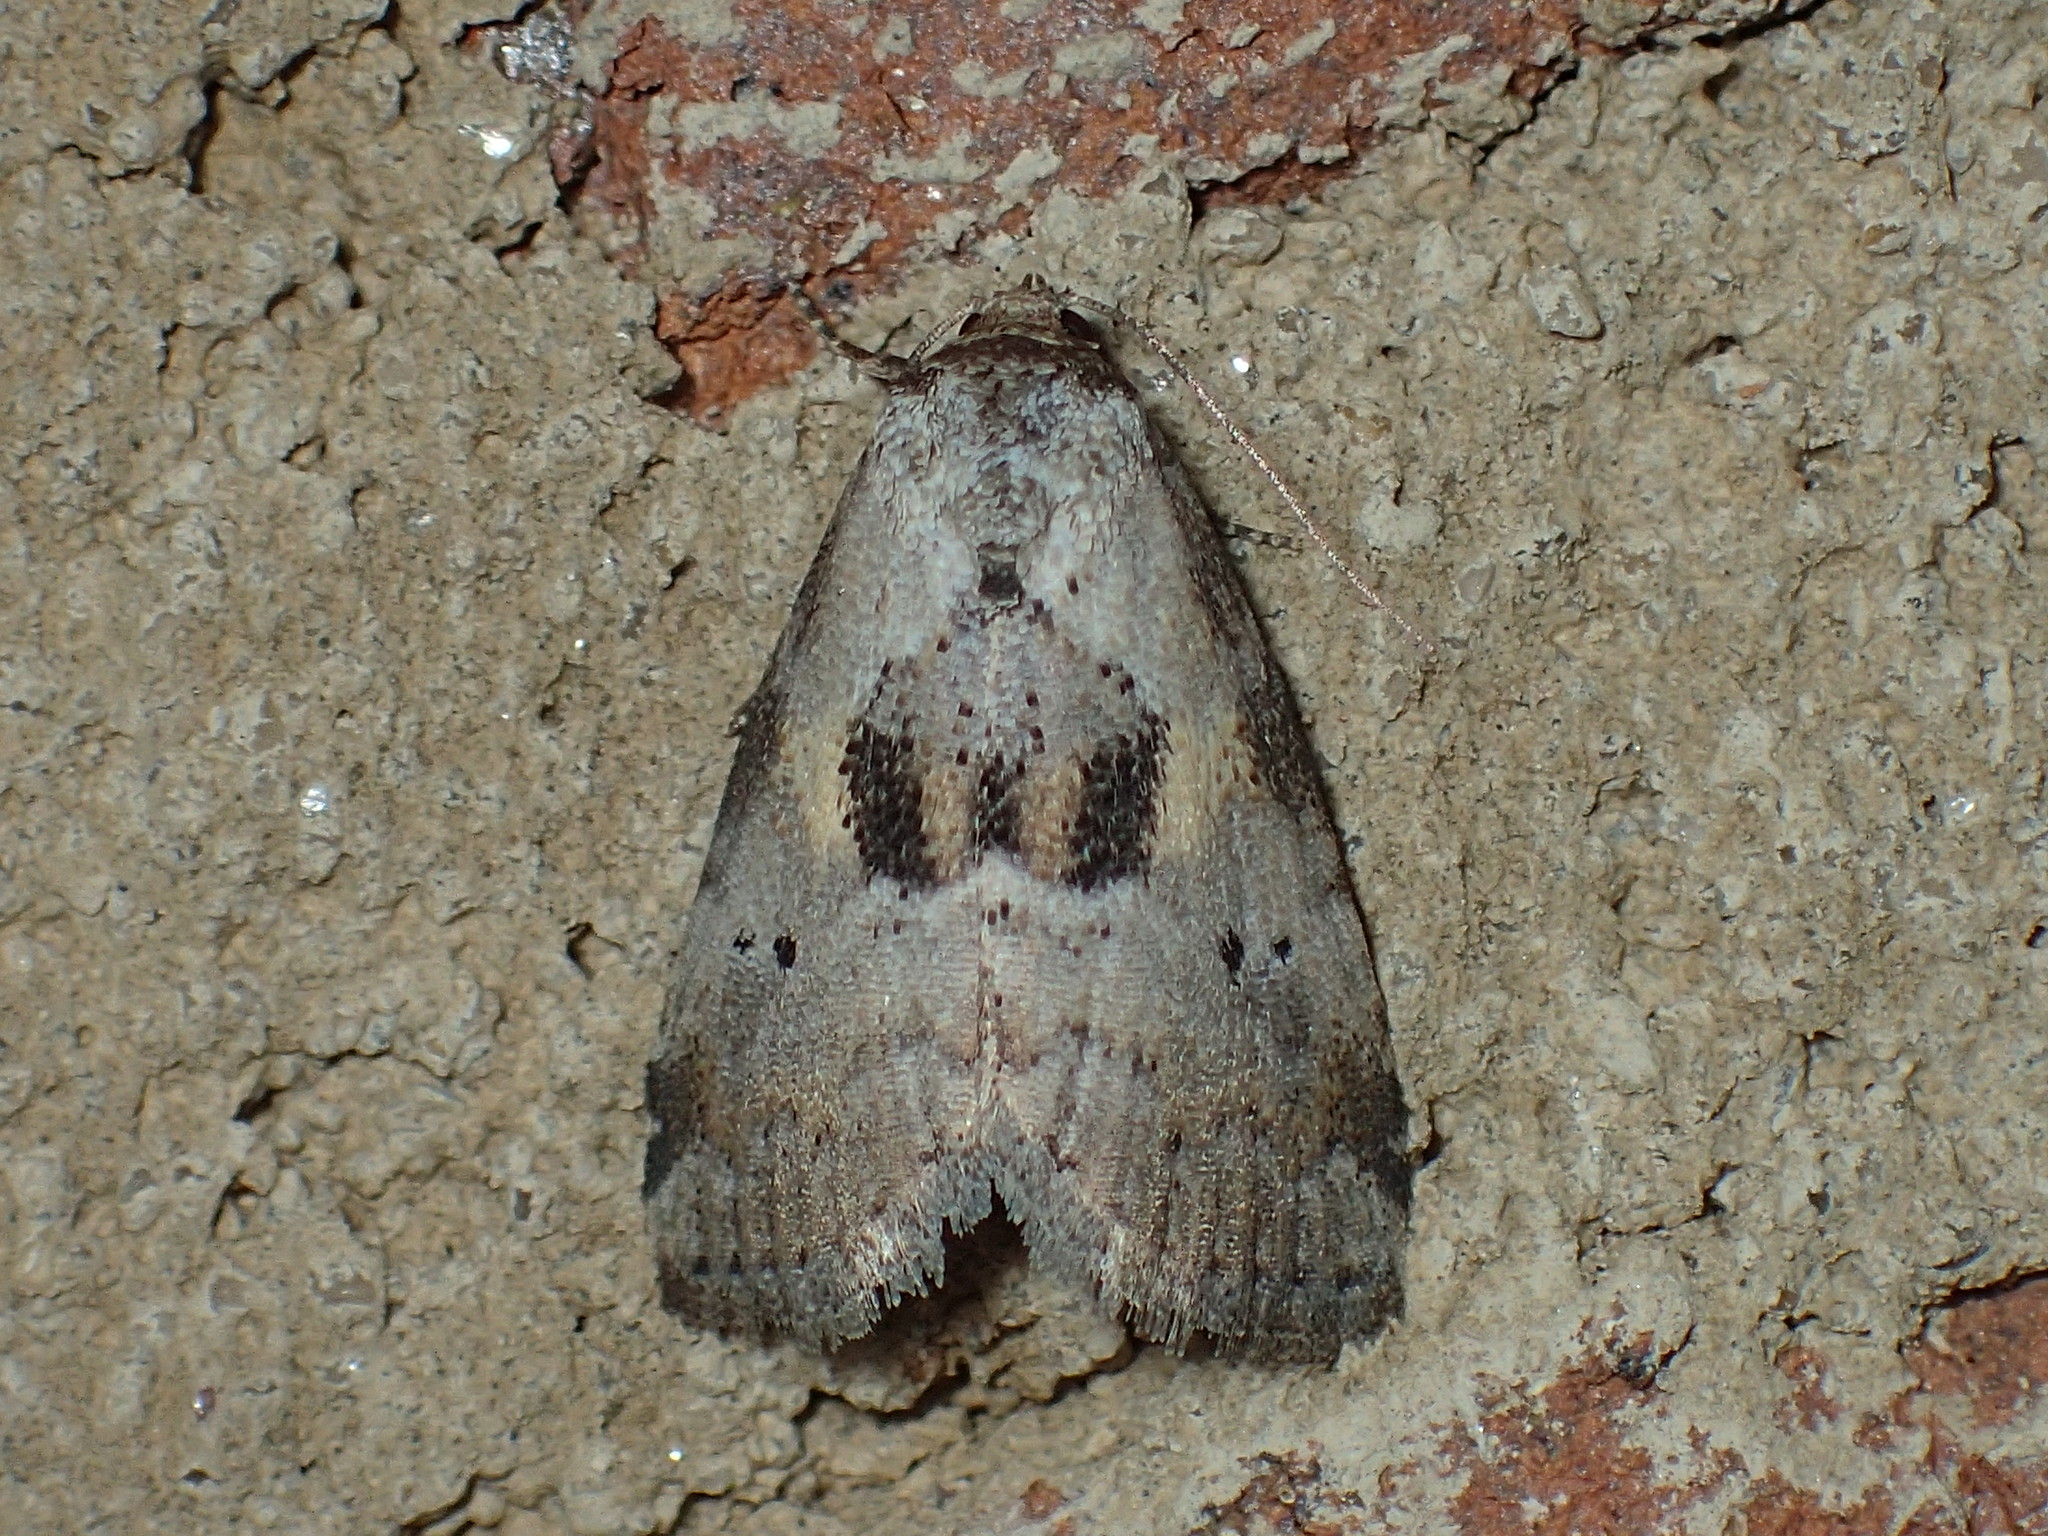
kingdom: Animalia
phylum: Arthropoda
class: Insecta
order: Lepidoptera
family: Erebidae
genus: Hyperstrotia
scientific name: Hyperstrotia secta
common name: Black-patched graylet
